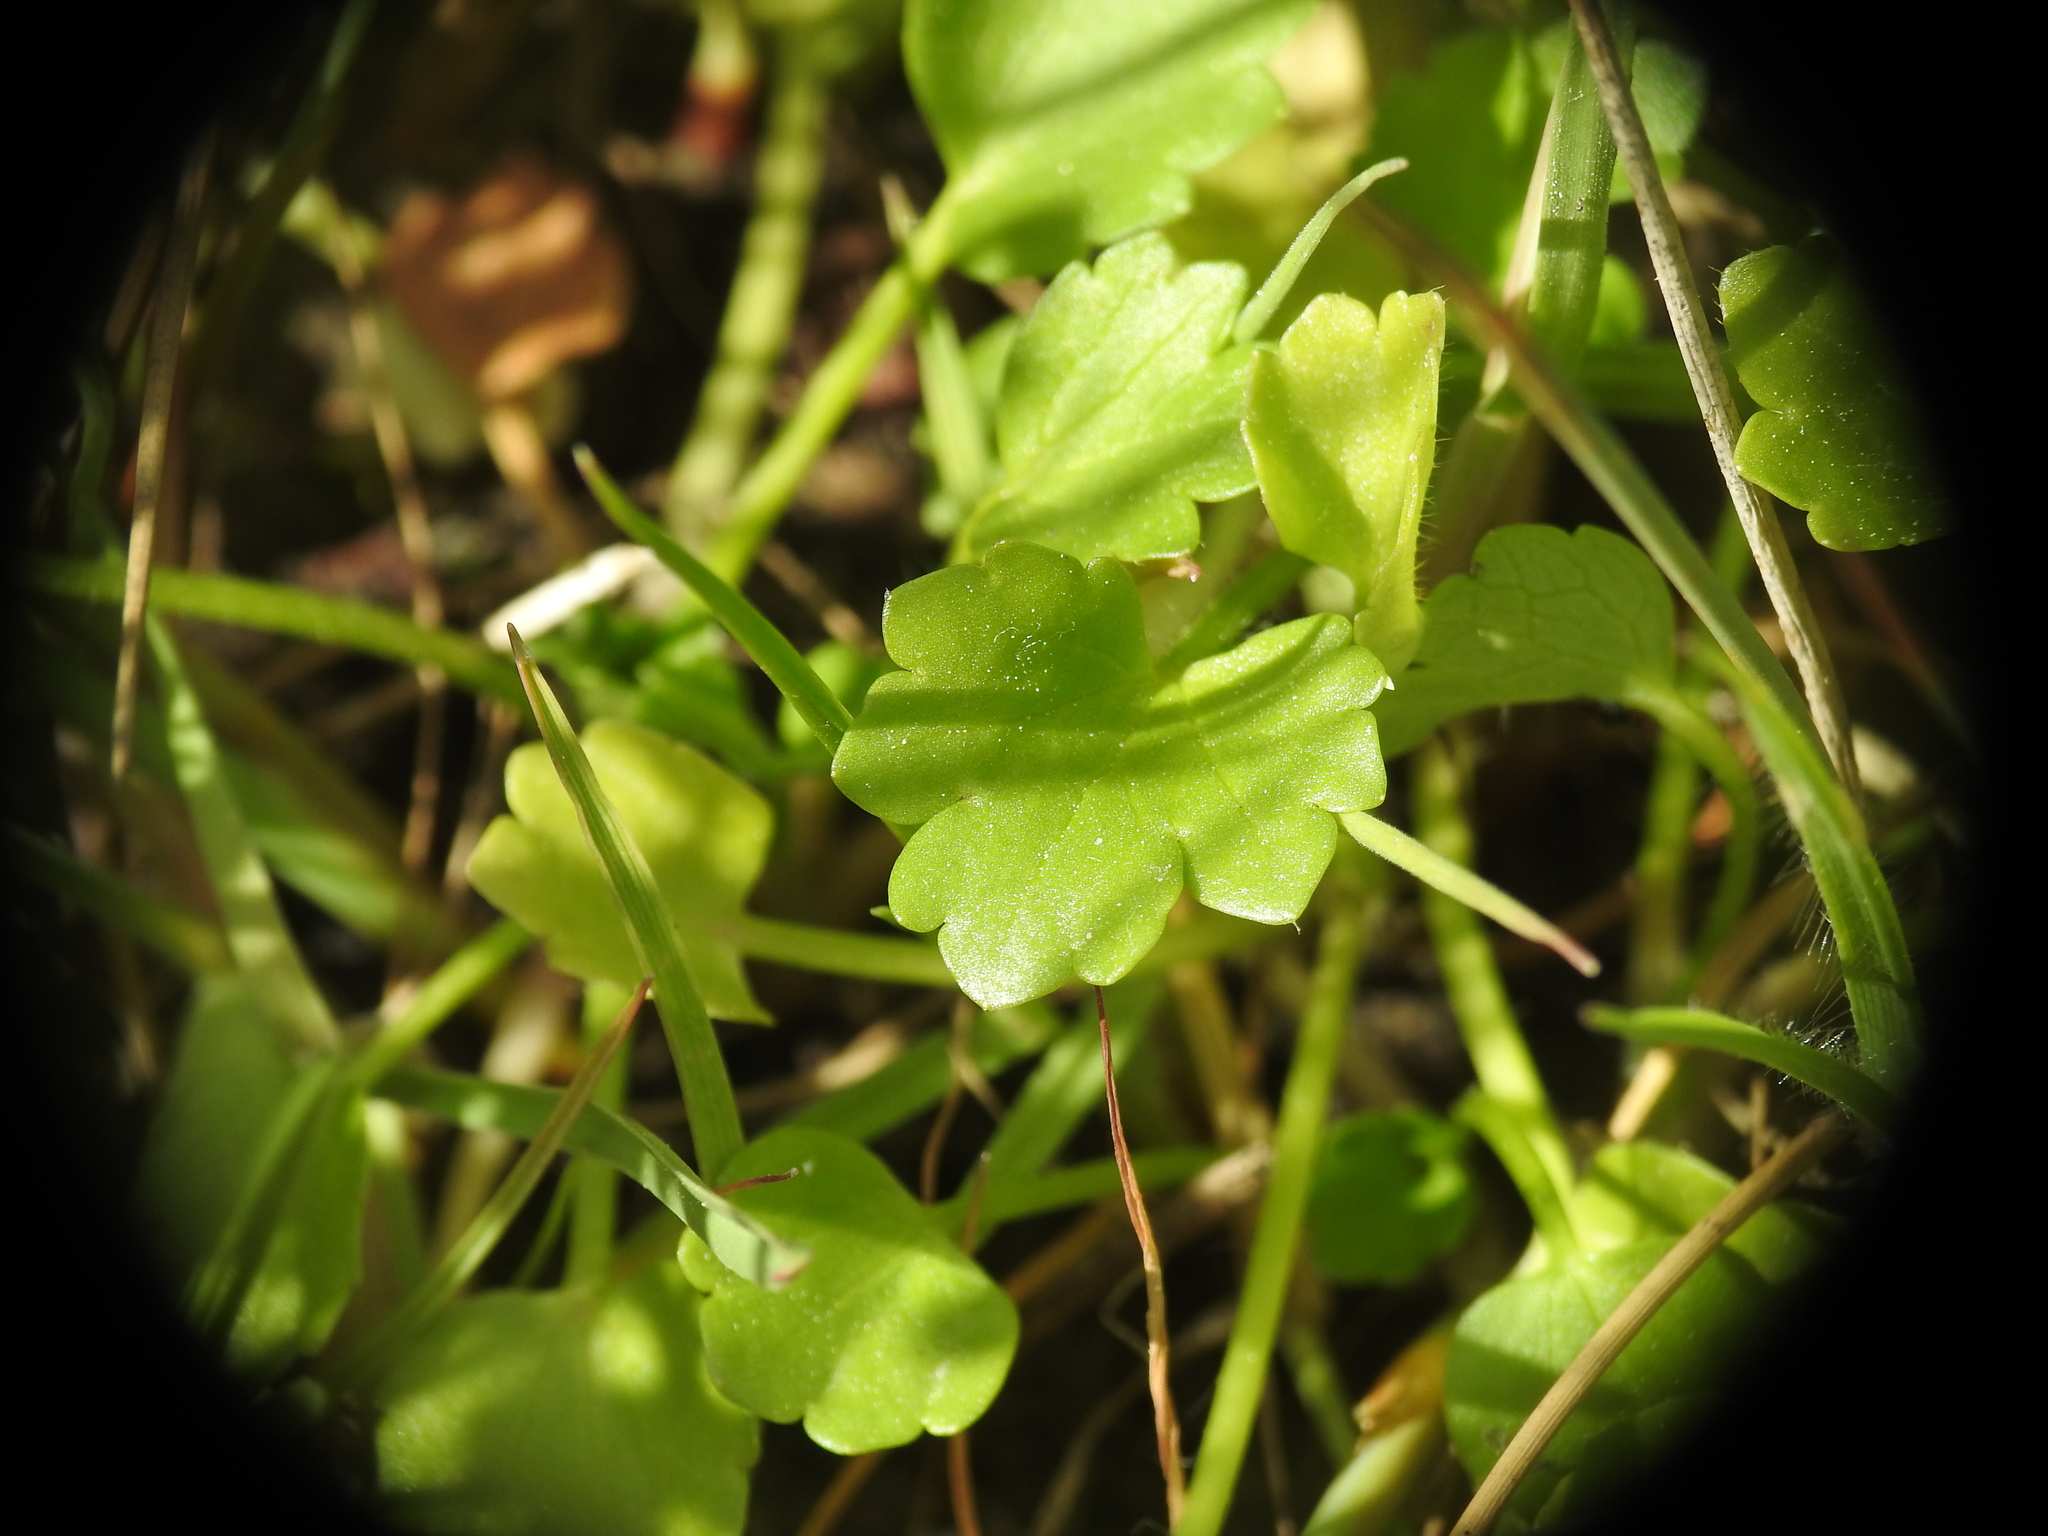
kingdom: Plantae
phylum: Tracheophyta
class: Magnoliopsida
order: Ranunculales
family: Ranunculaceae
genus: Ranunculus
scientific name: Ranunculus sardous
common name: Hairy buttercup
